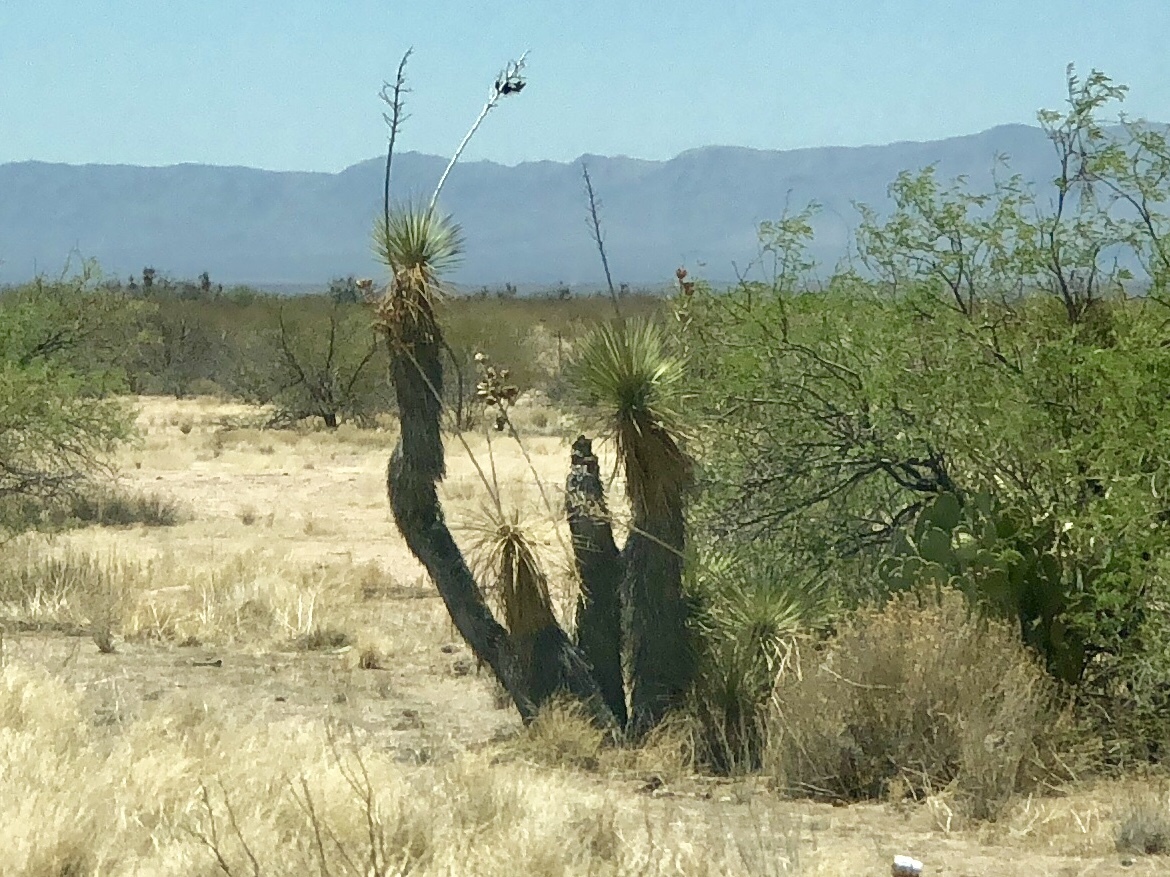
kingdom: Plantae
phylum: Tracheophyta
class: Liliopsida
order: Asparagales
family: Asparagaceae
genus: Yucca
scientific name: Yucca elata
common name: Palmella
